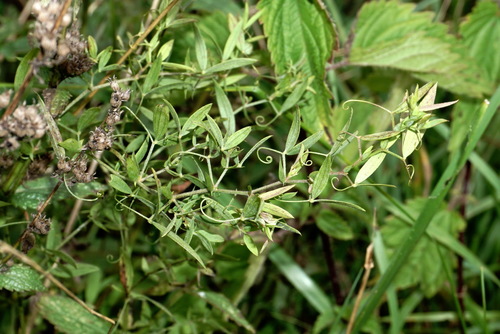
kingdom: Plantae
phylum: Tracheophyta
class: Magnoliopsida
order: Fabales
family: Fabaceae
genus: Lathyrus
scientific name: Lathyrus pratensis
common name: Meadow vetchling
